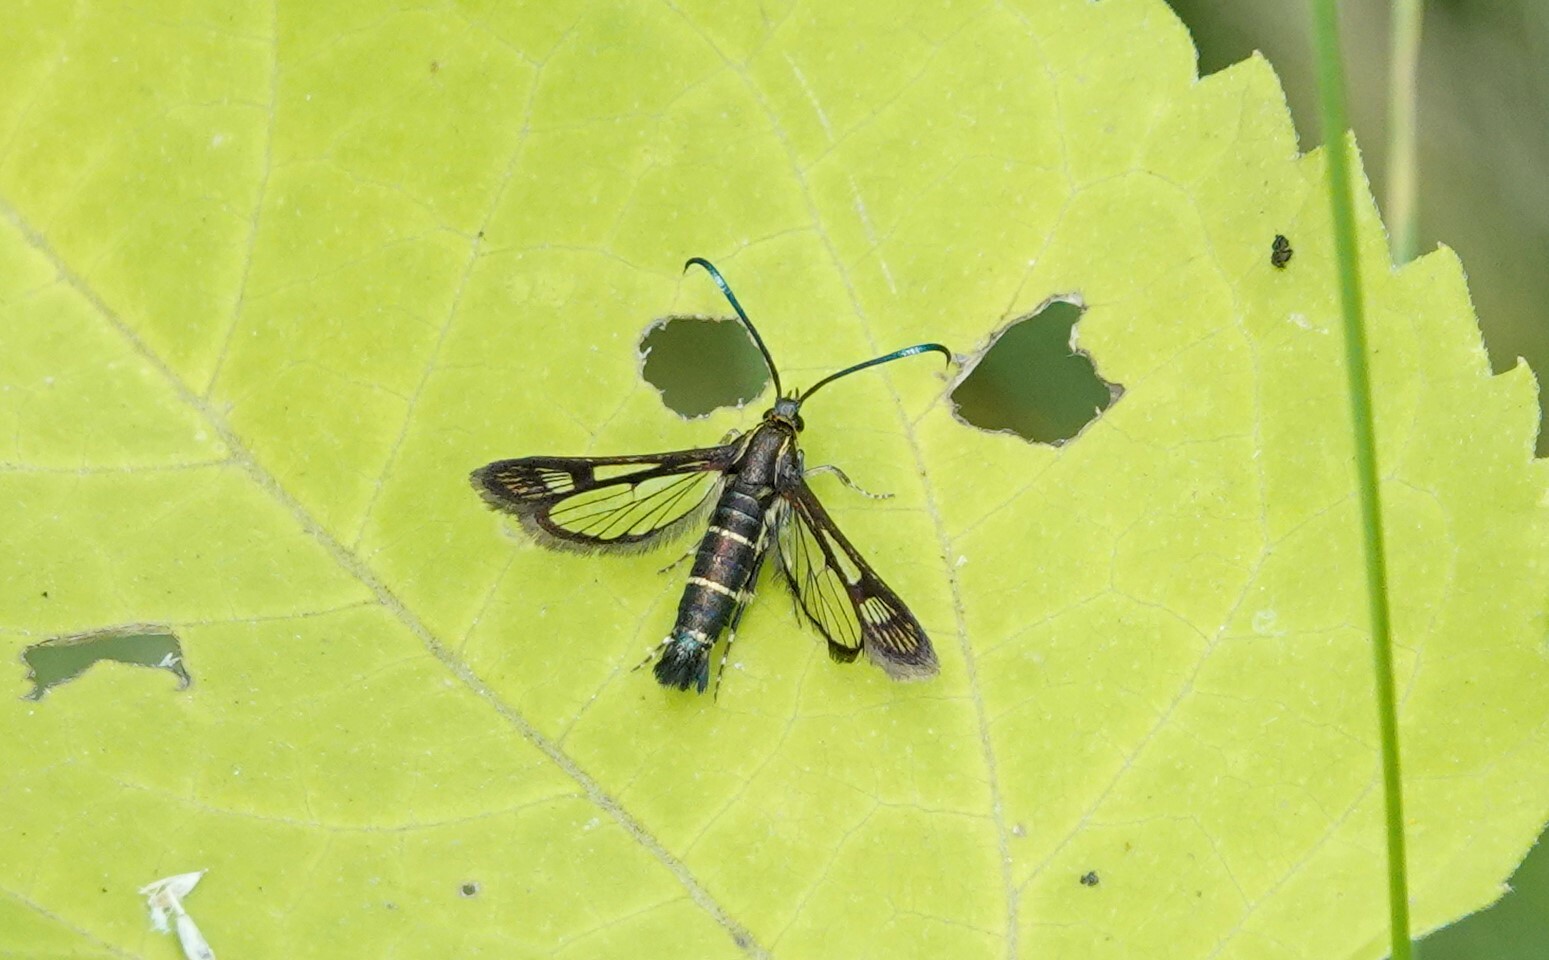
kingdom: Animalia
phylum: Arthropoda
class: Insecta
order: Lepidoptera
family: Sesiidae
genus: Carmenta
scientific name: Carmenta ithacae
